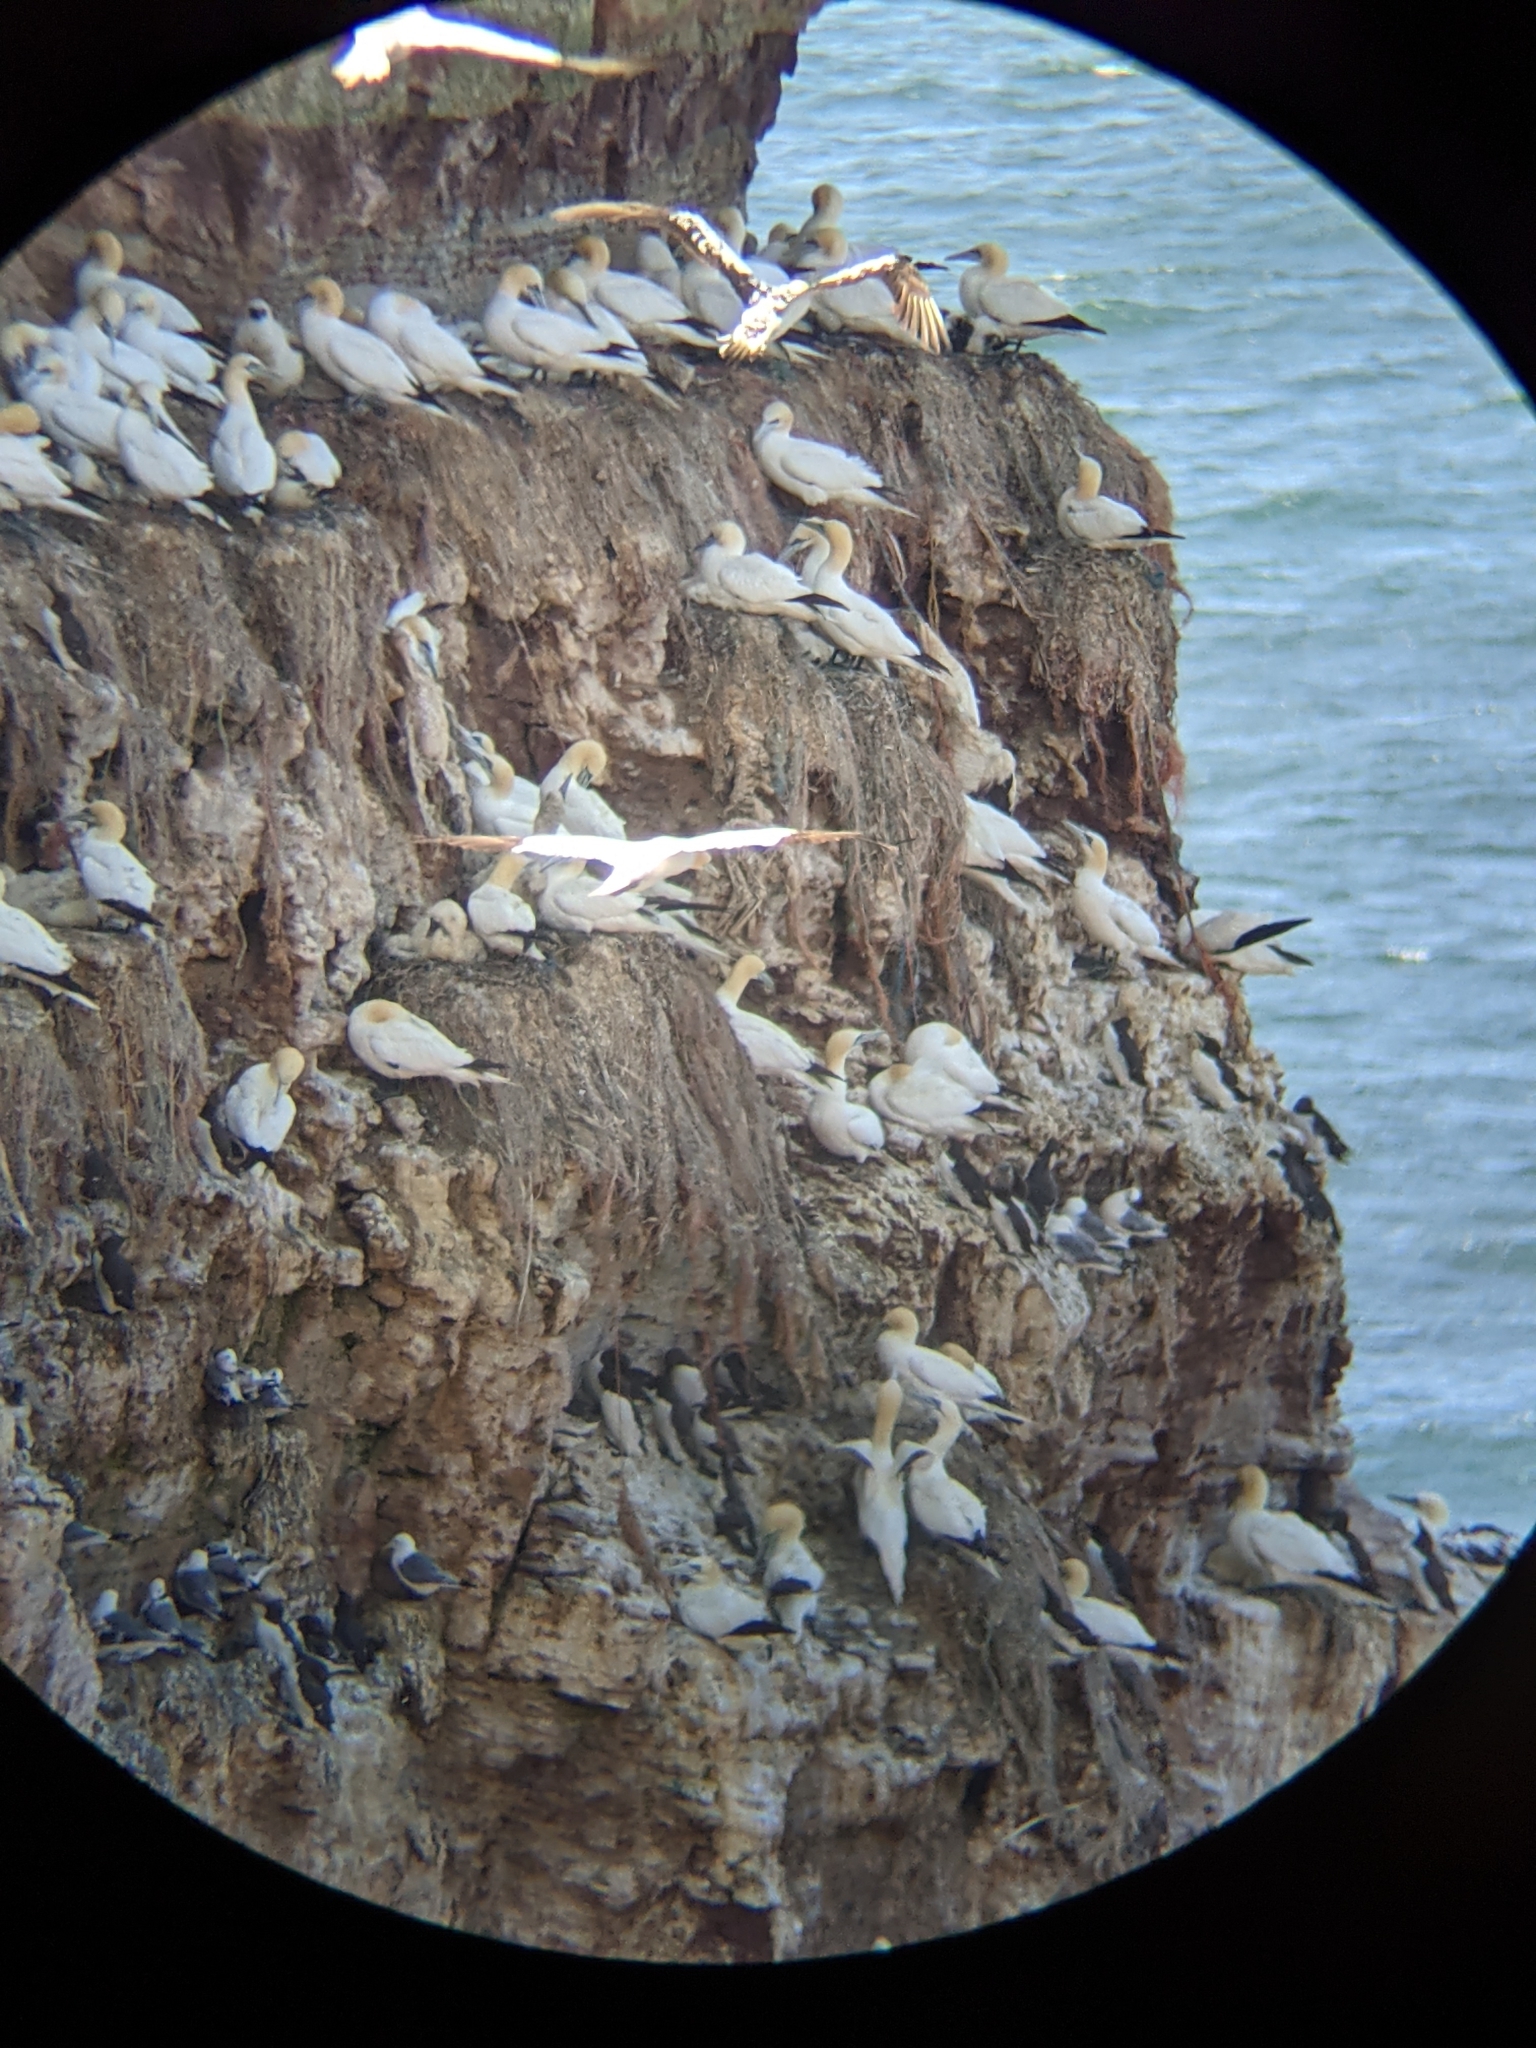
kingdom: Animalia
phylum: Chordata
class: Aves
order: Suliformes
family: Sulidae
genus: Morus
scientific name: Morus bassanus
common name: Northern gannet
